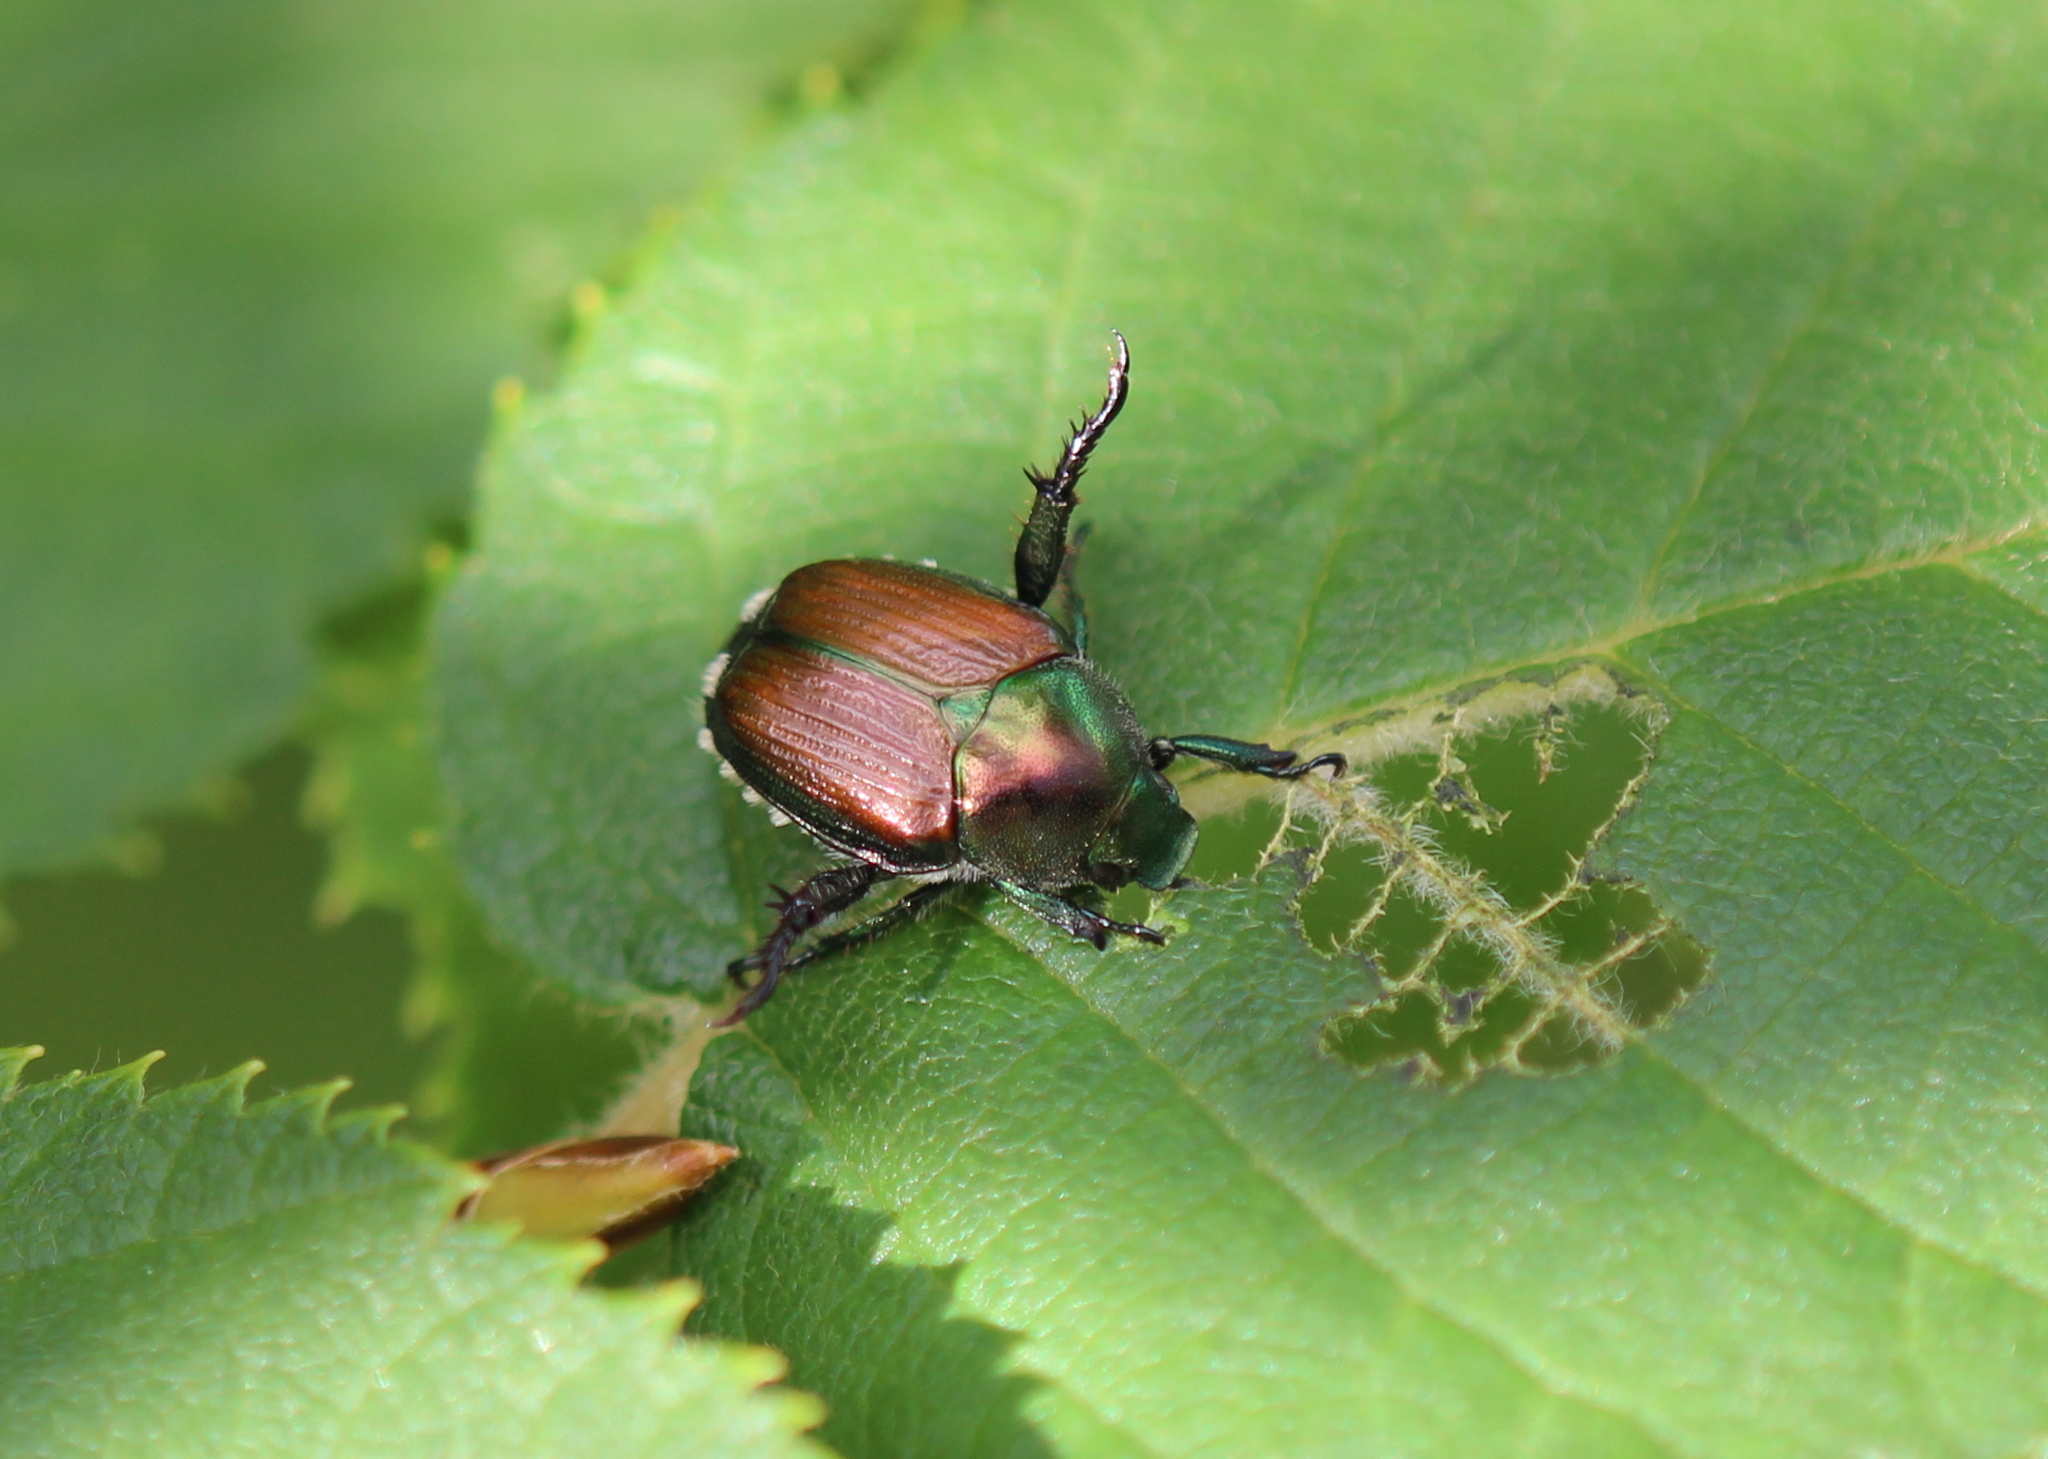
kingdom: Animalia
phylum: Arthropoda
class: Insecta
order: Coleoptera
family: Scarabaeidae
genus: Popillia
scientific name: Popillia japonica
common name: Japanese beetle
